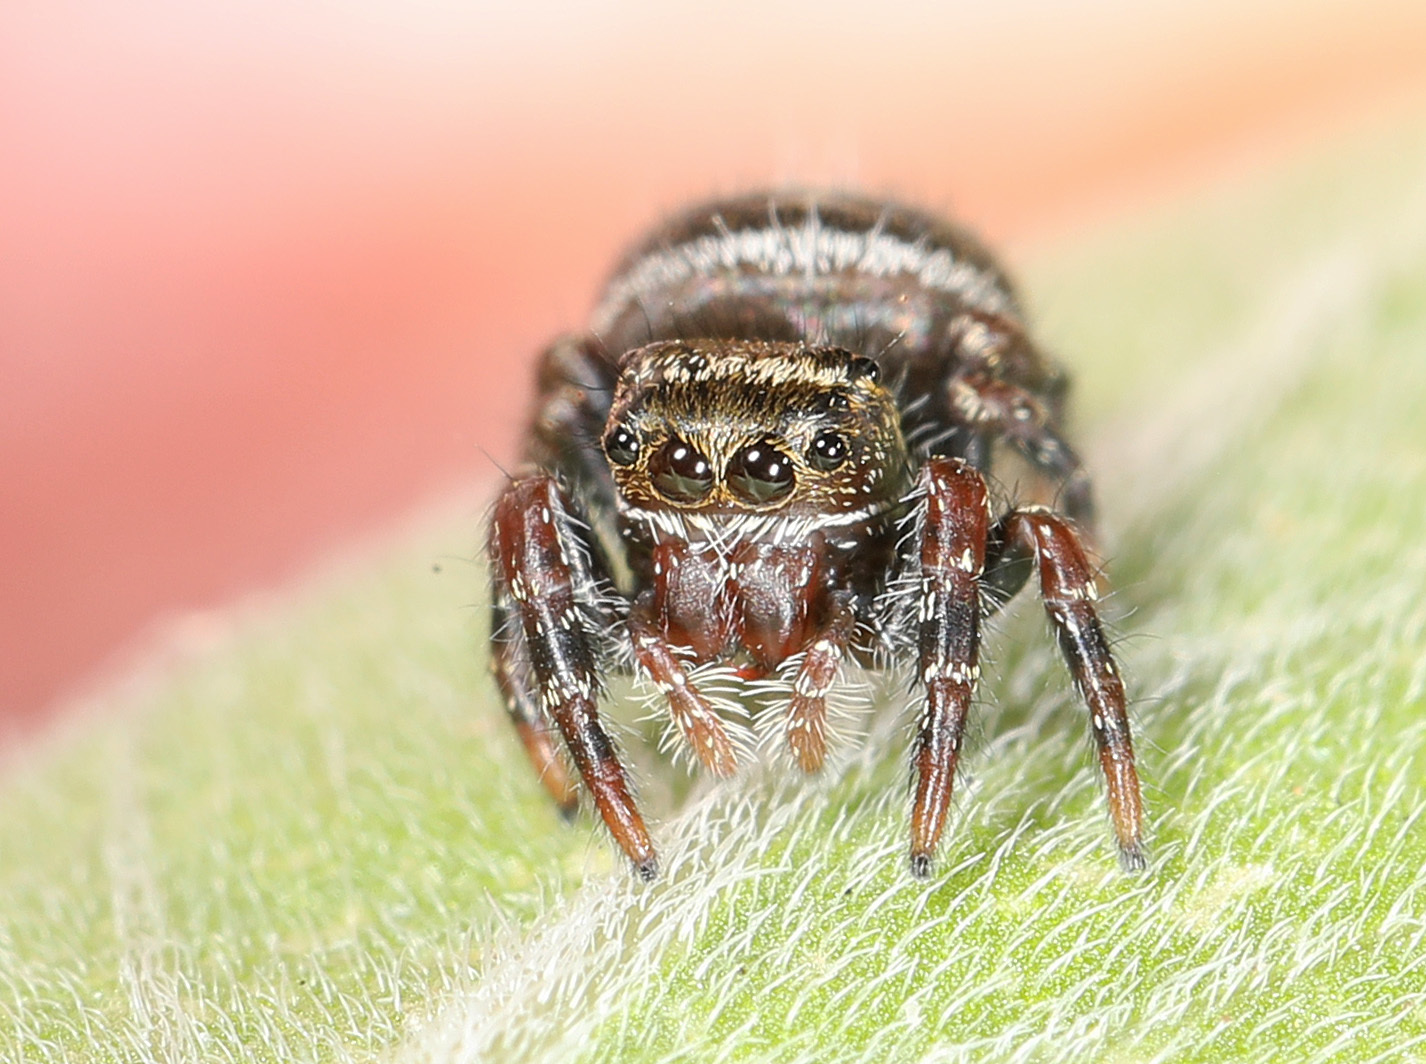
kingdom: Animalia
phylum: Arthropoda
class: Arachnida
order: Araneae
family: Salticidae
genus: Phidippus
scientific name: Phidippus audax
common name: Bold jumper
